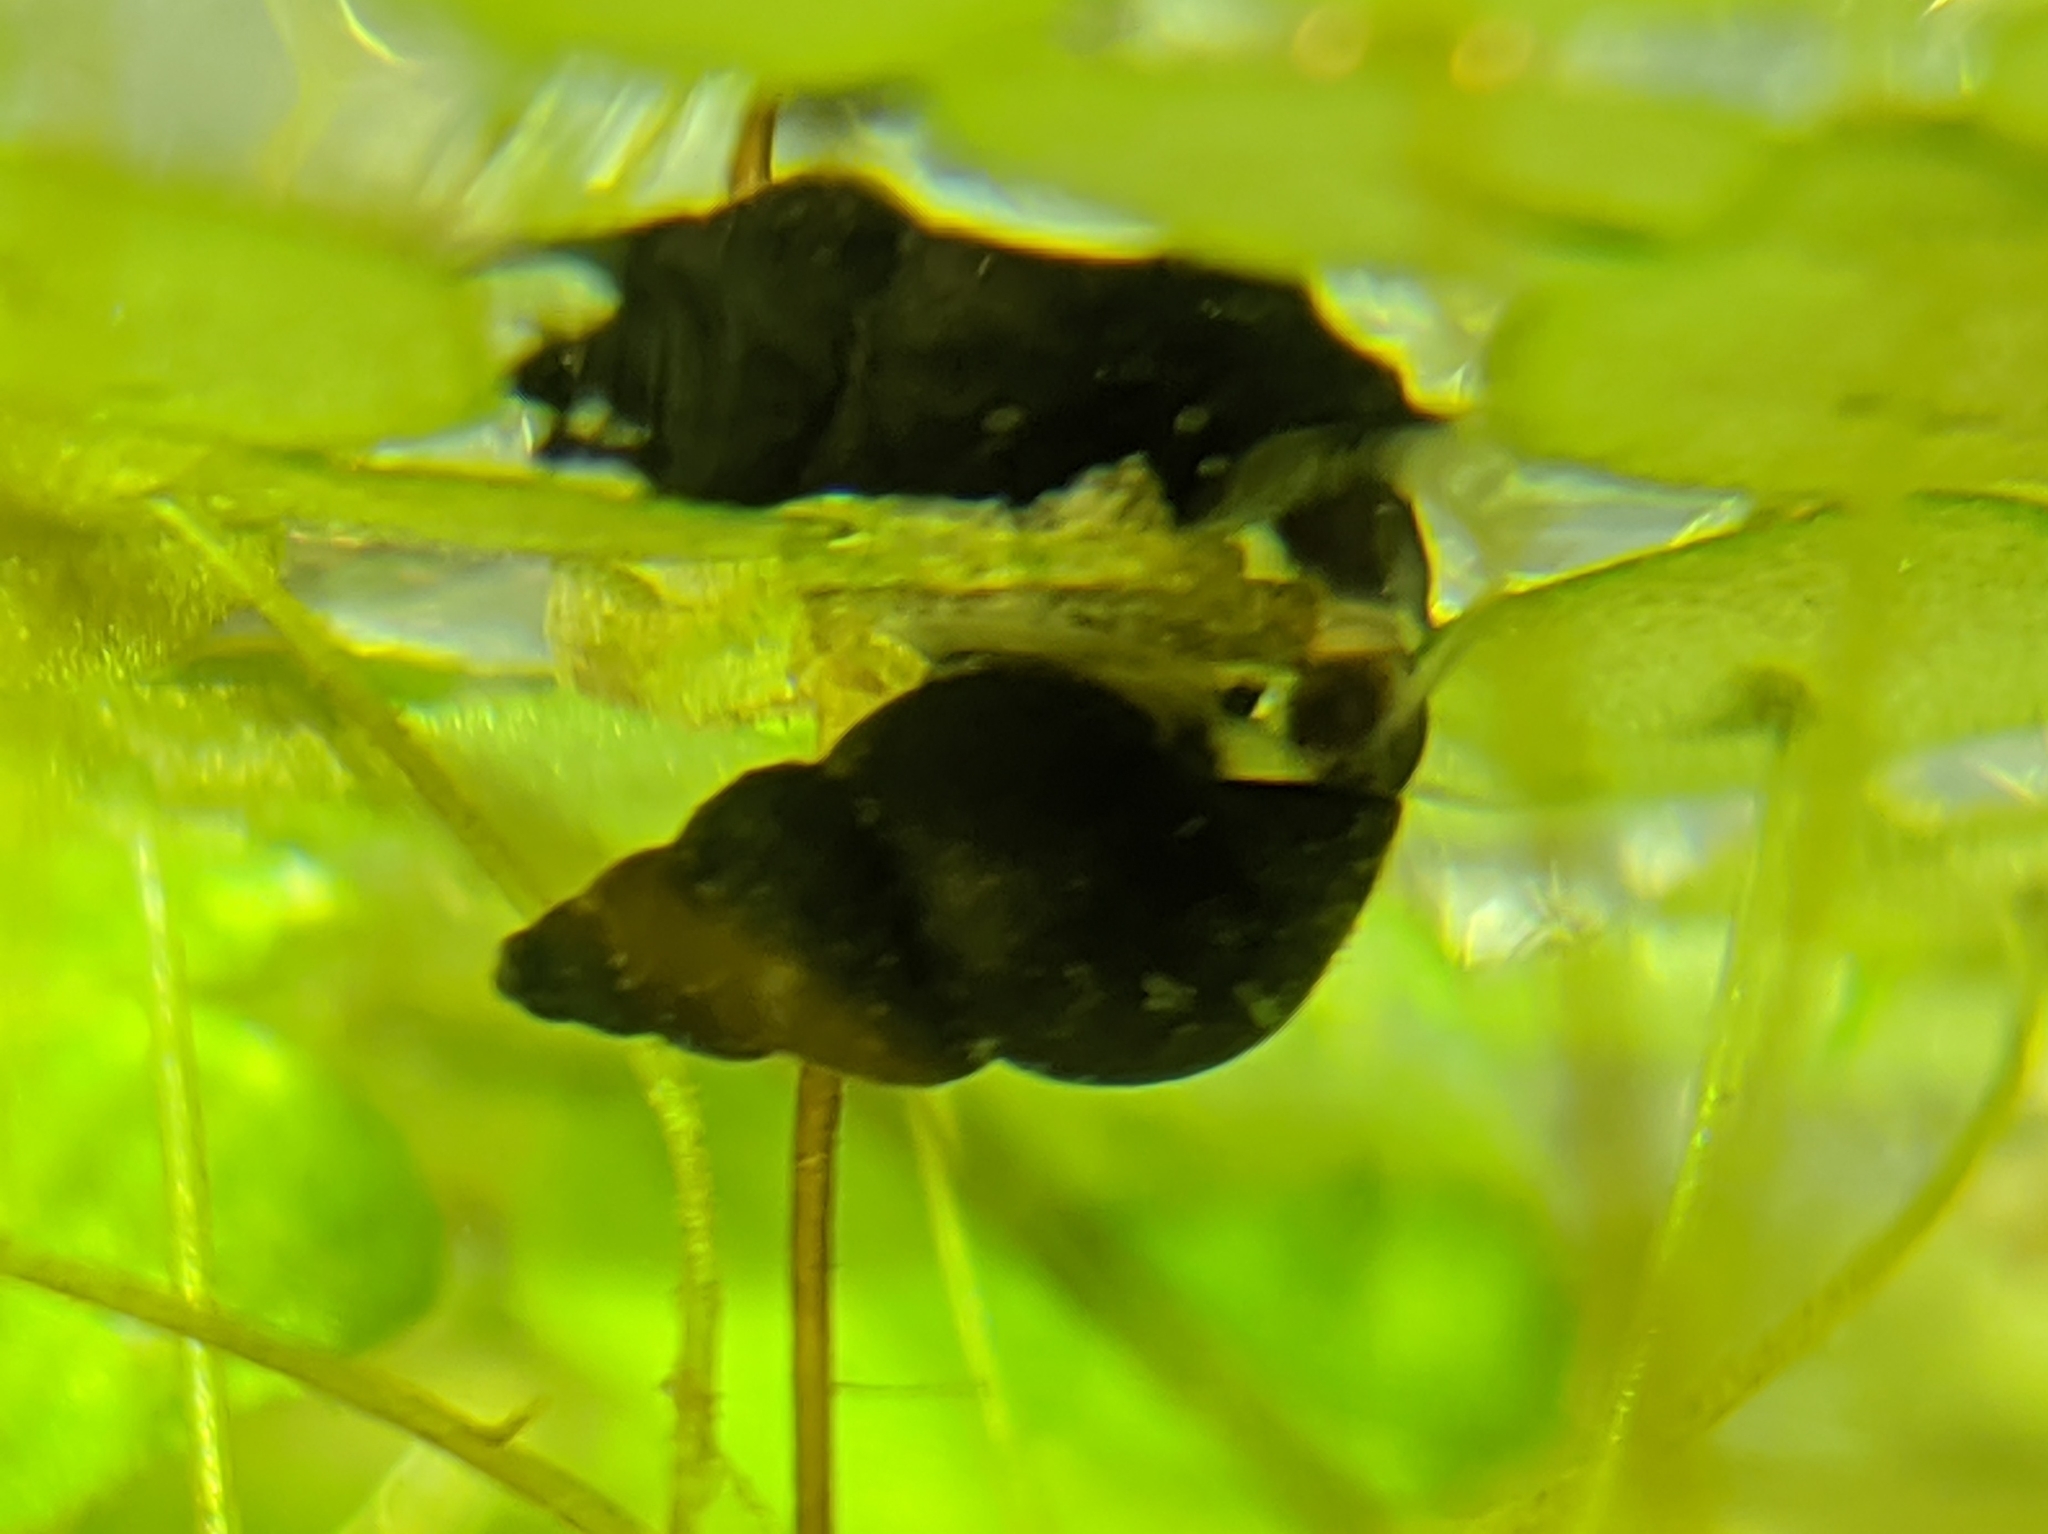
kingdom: Animalia
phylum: Mollusca
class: Gastropoda
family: Lymnaeidae
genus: Galba
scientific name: Galba truncatula
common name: Dwarf pond snail
